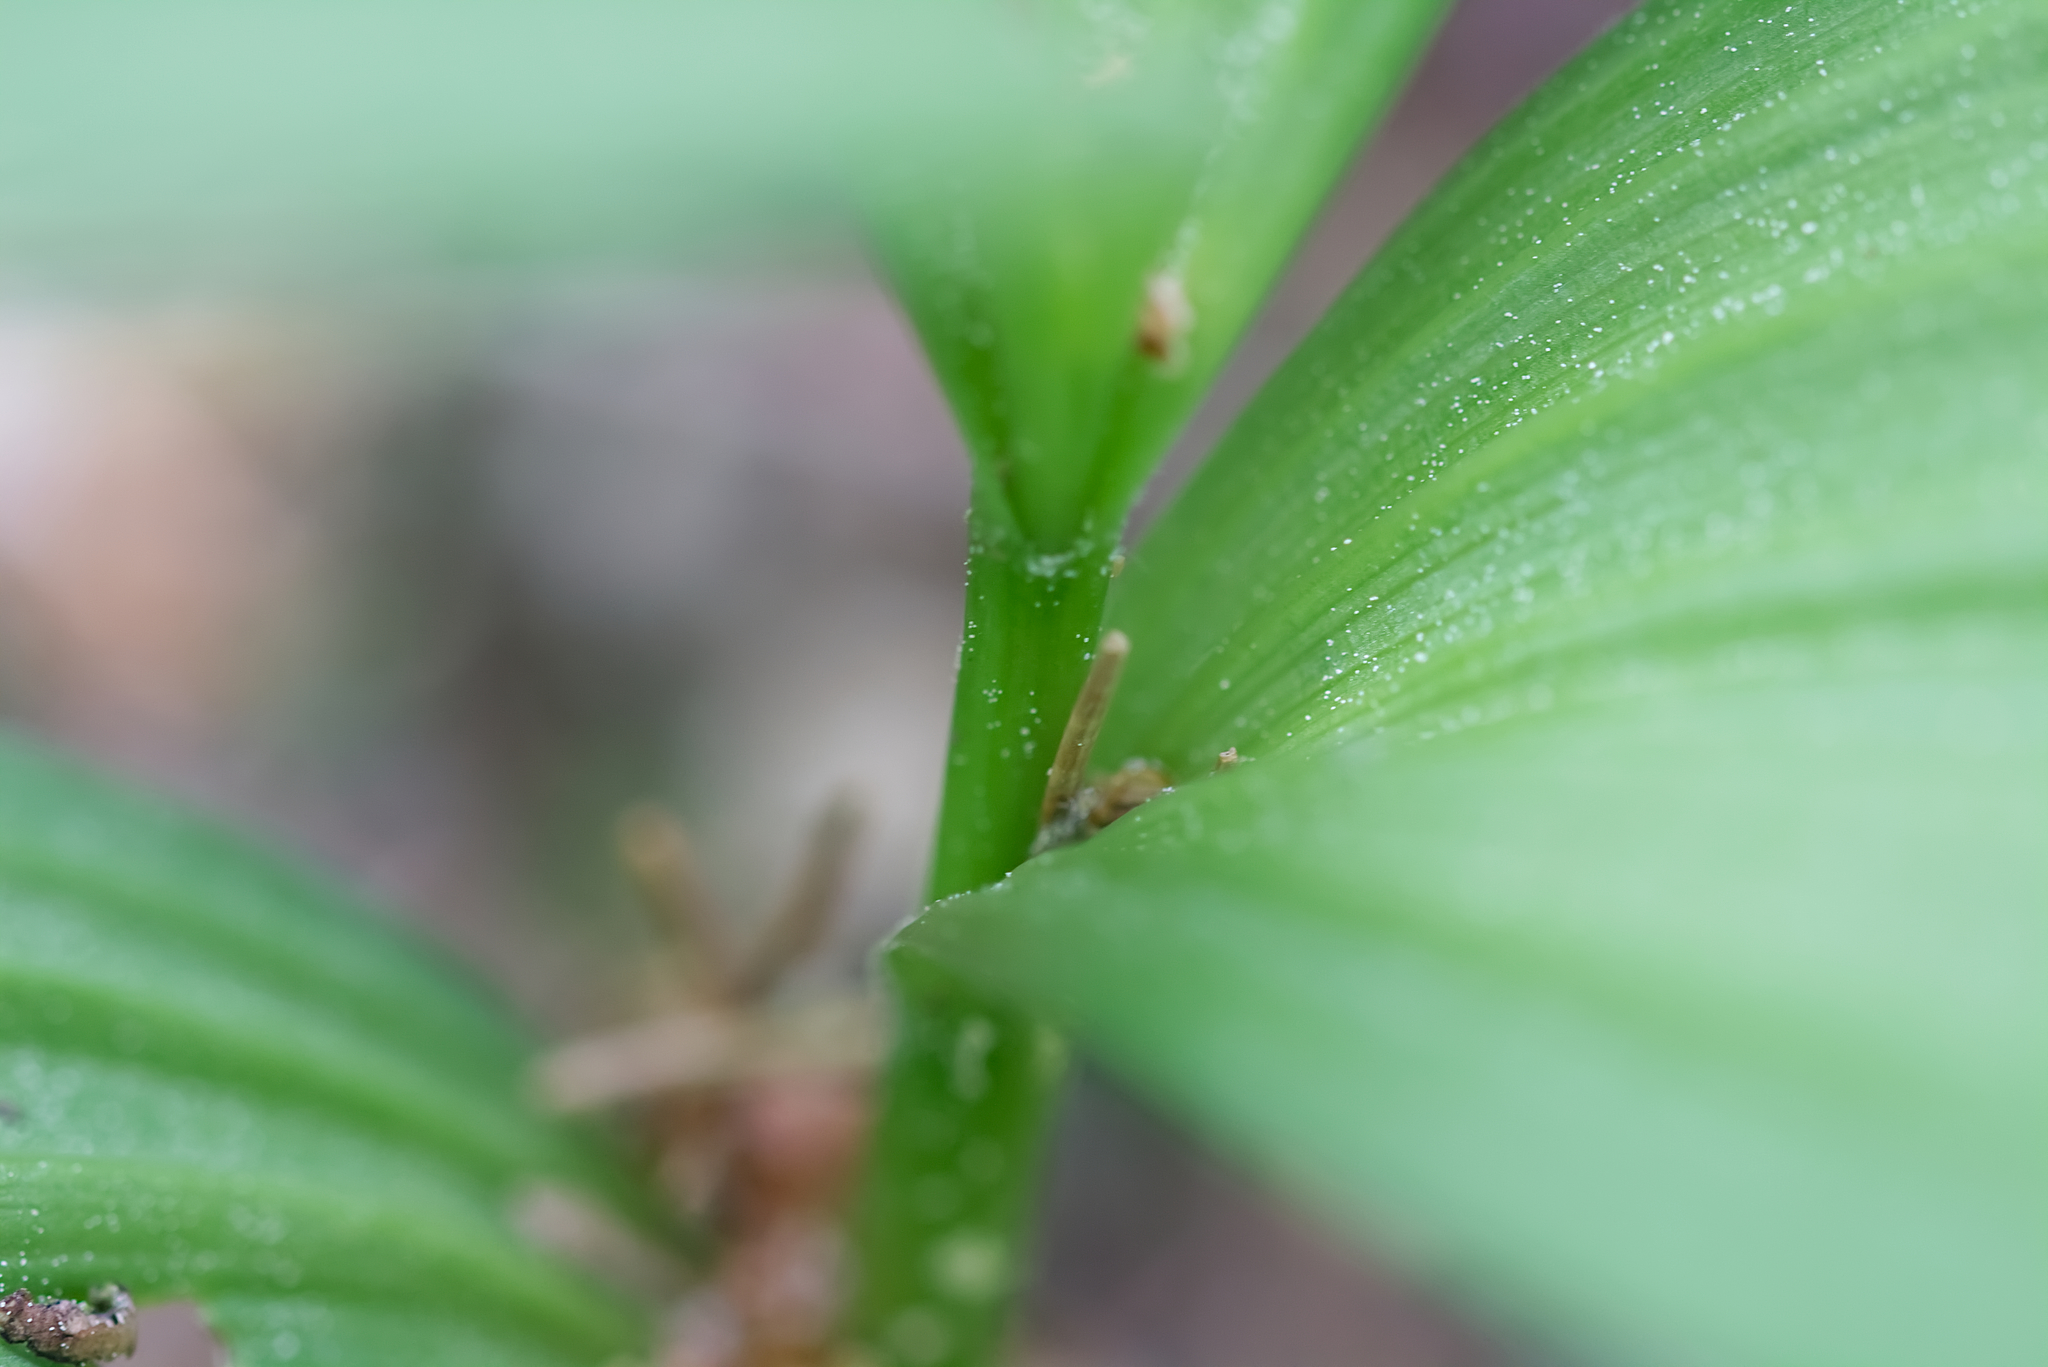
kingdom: Plantae
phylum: Tracheophyta
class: Liliopsida
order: Liliales
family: Melanthiaceae
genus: Veratrum
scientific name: Veratrum album
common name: White veratrum
